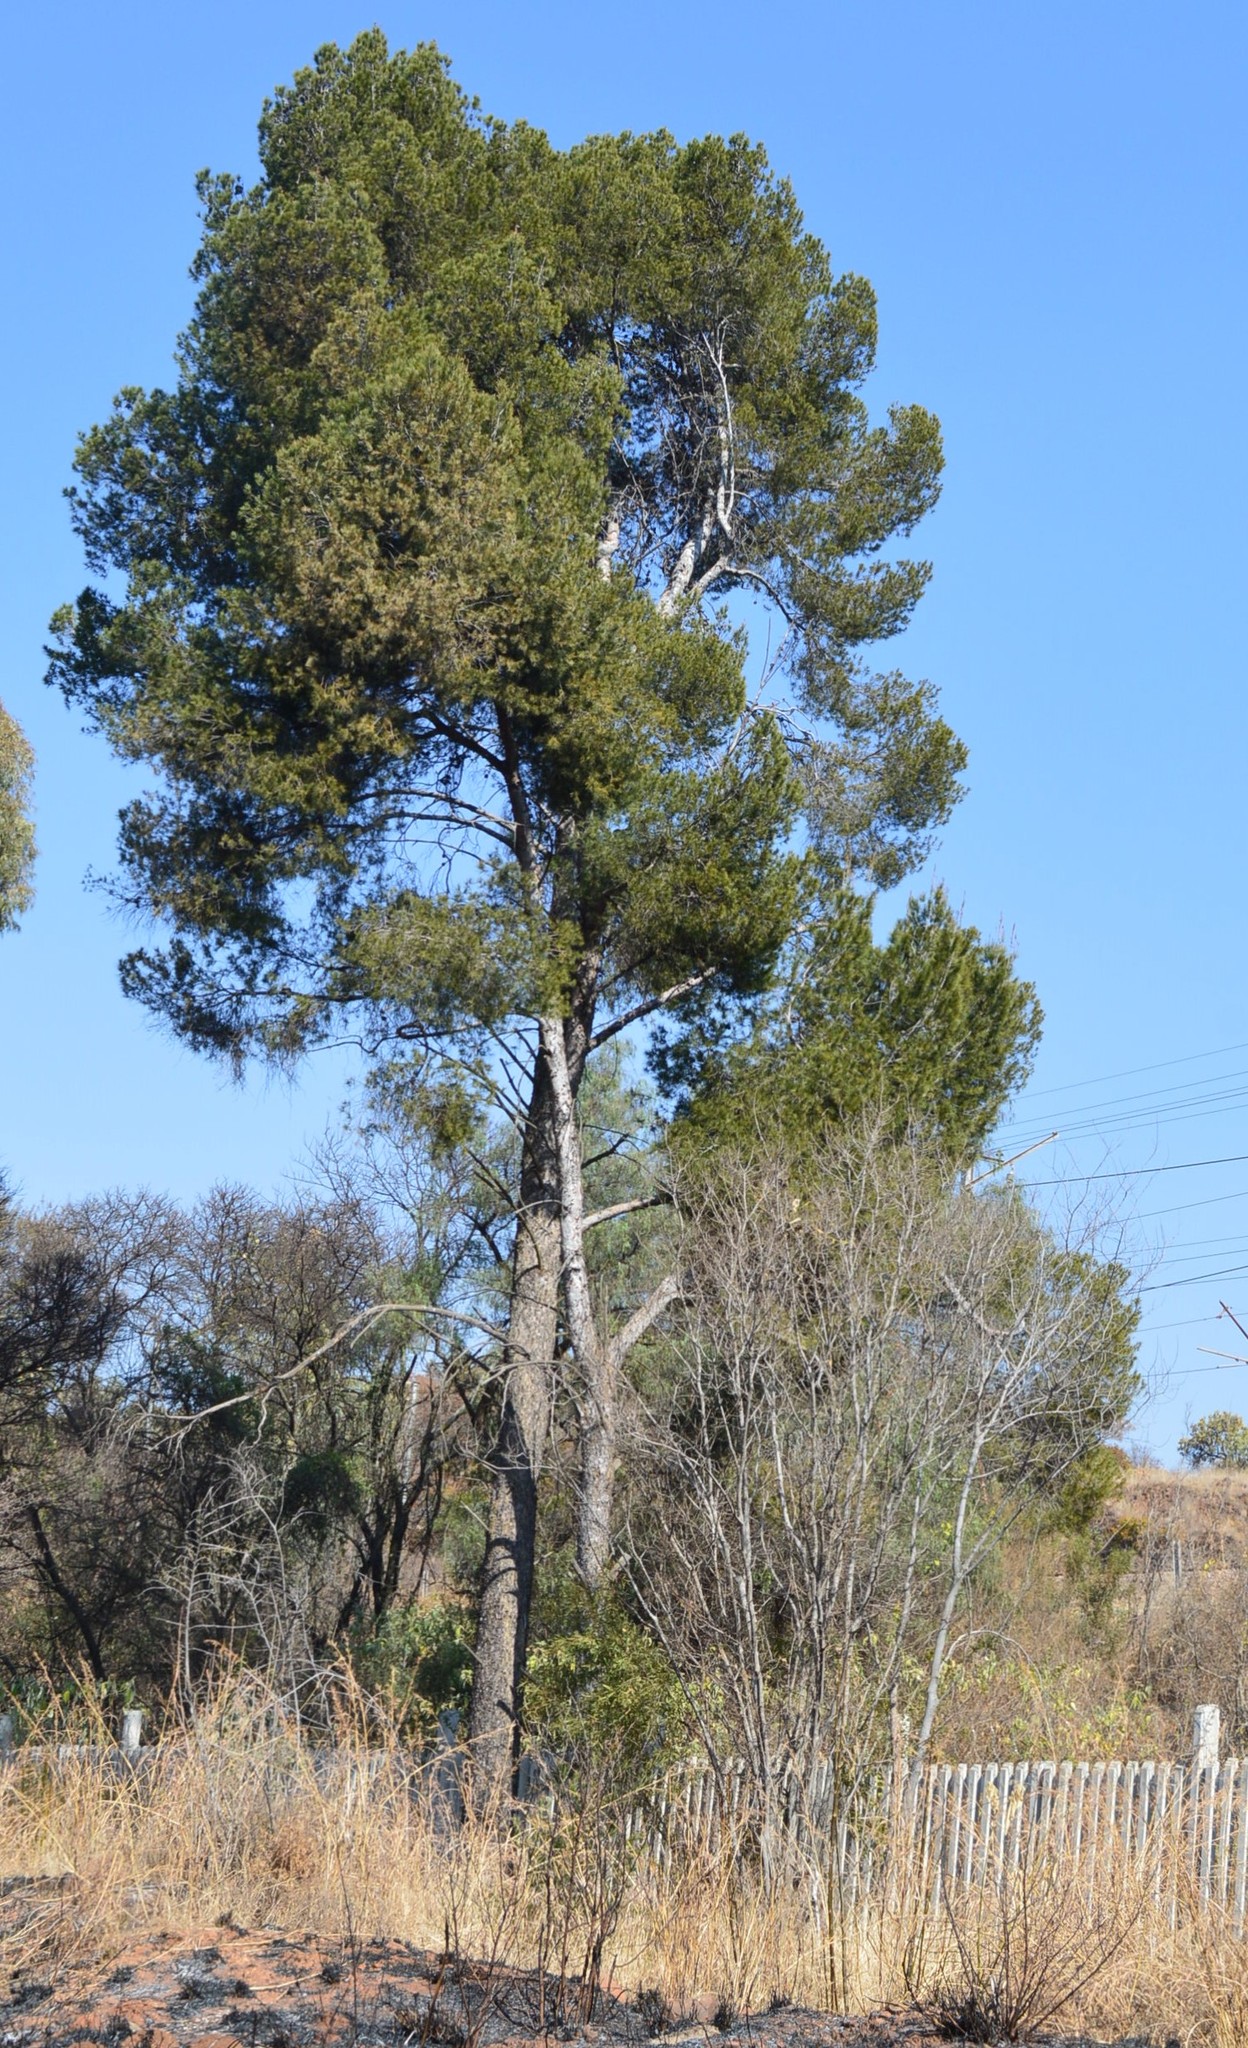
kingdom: Plantae
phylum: Tracheophyta
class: Pinopsida
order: Pinales
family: Pinaceae
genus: Pinus
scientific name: Pinus halepensis
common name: Aleppo pine
